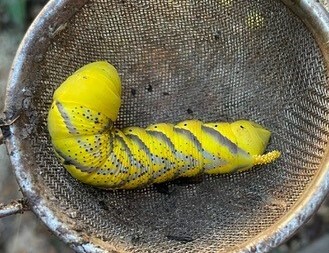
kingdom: Animalia
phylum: Arthropoda
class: Insecta
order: Lepidoptera
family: Sphingidae
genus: Acherontia
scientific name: Acherontia atropos
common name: Death's-head hawk moth
